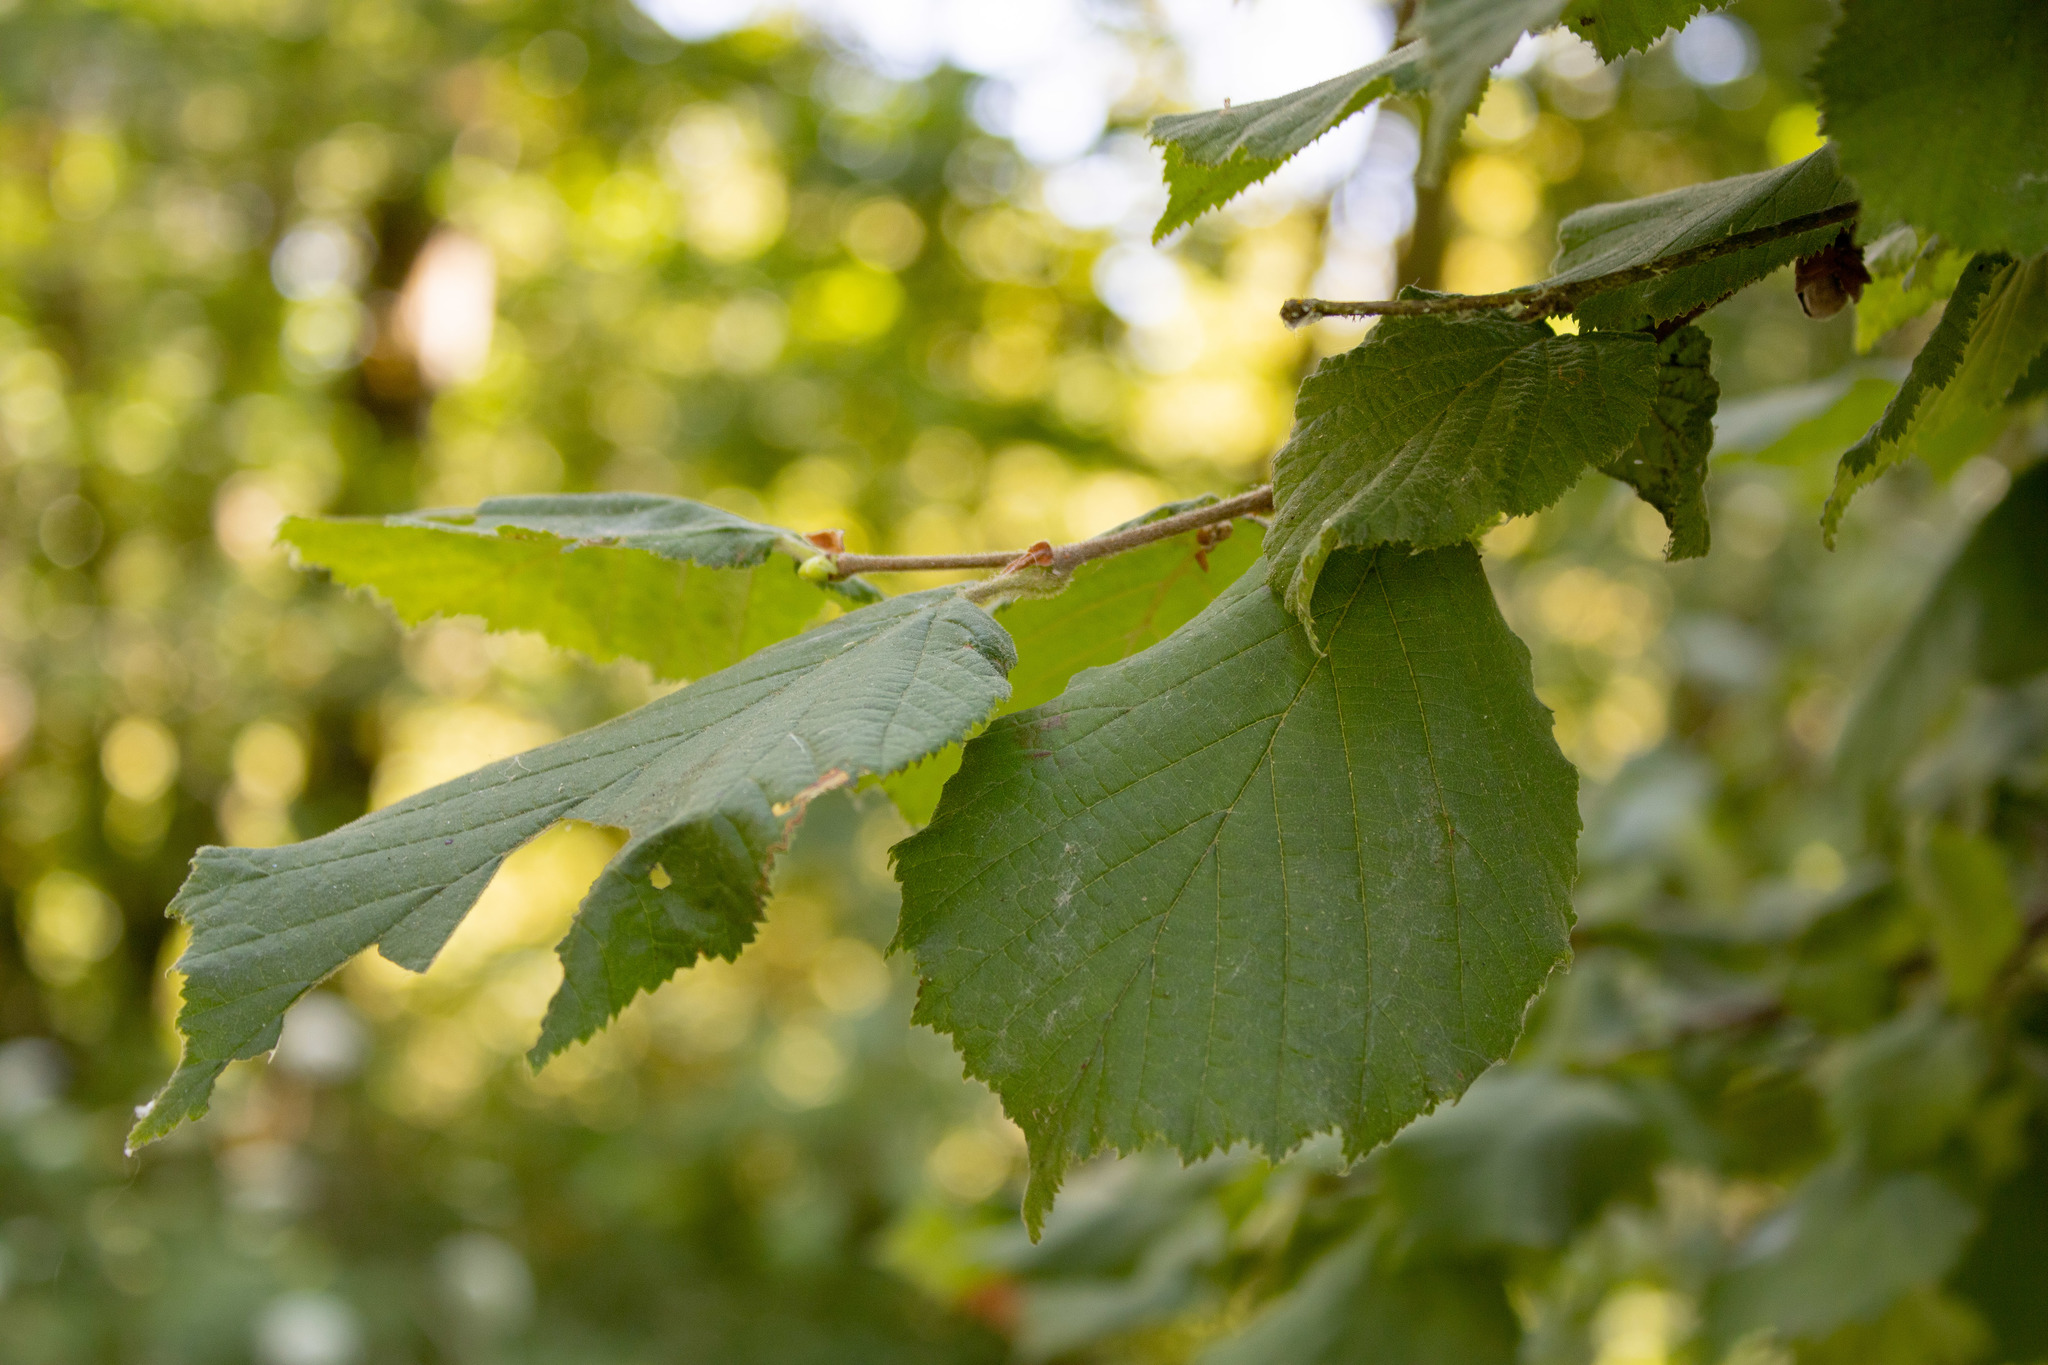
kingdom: Plantae
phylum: Tracheophyta
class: Magnoliopsida
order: Fagales
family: Betulaceae
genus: Corylus
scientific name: Corylus avellana
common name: European hazel
